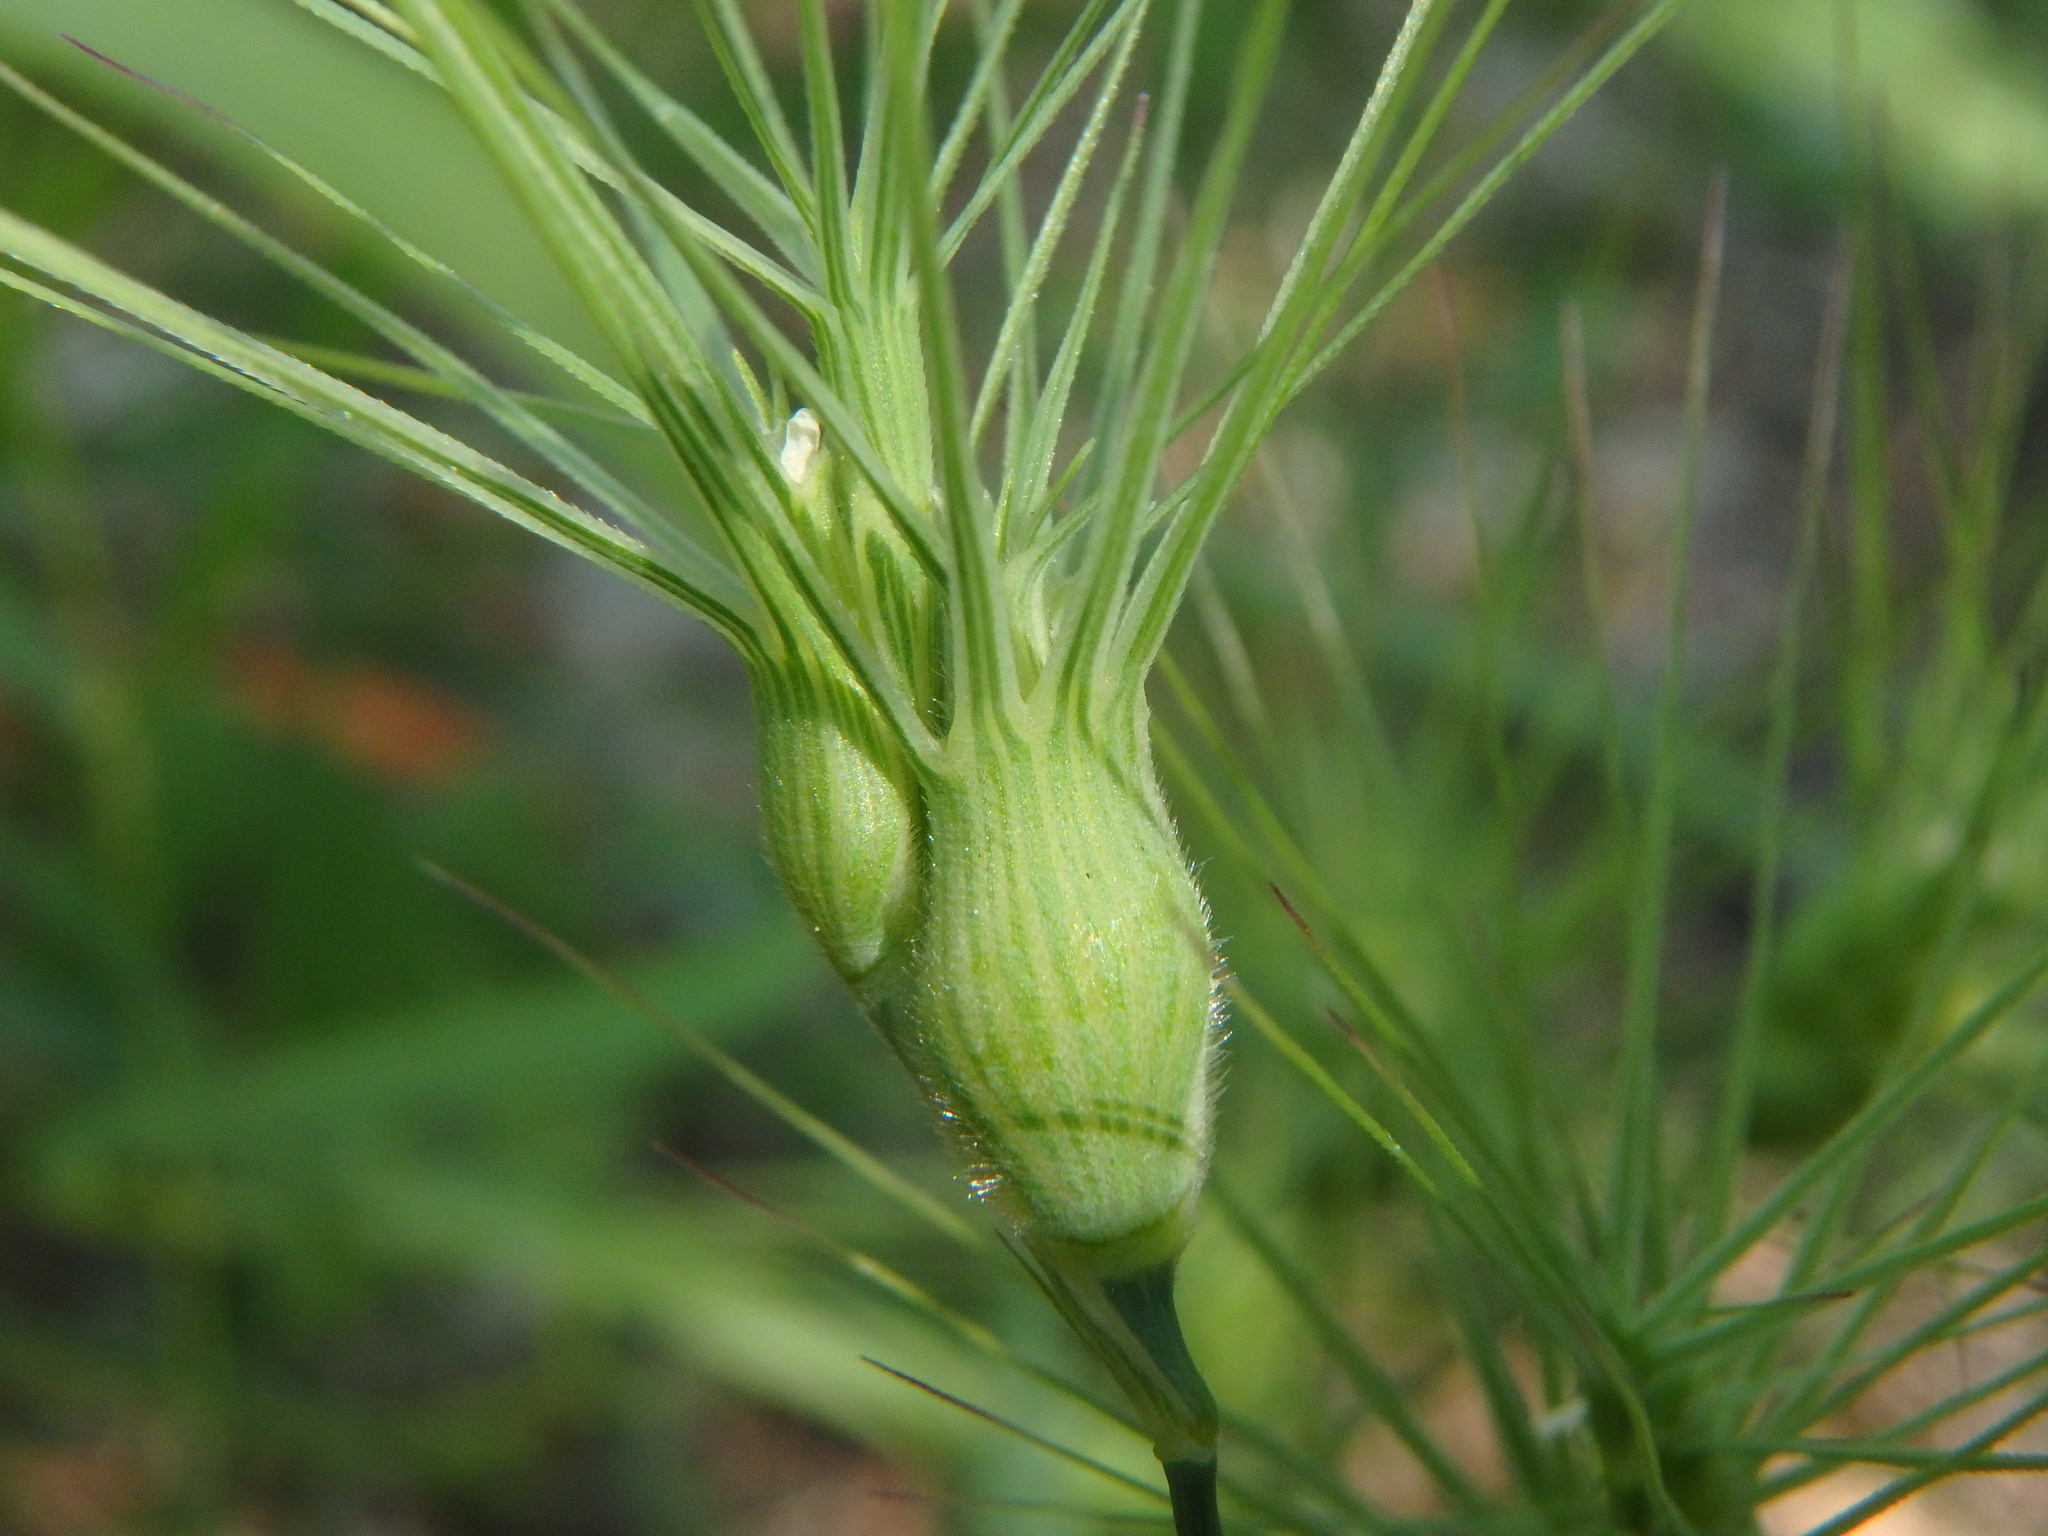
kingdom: Plantae
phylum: Tracheophyta
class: Liliopsida
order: Poales
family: Poaceae
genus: Aegilops
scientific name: Aegilops geniculata
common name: Ovate goat grass
